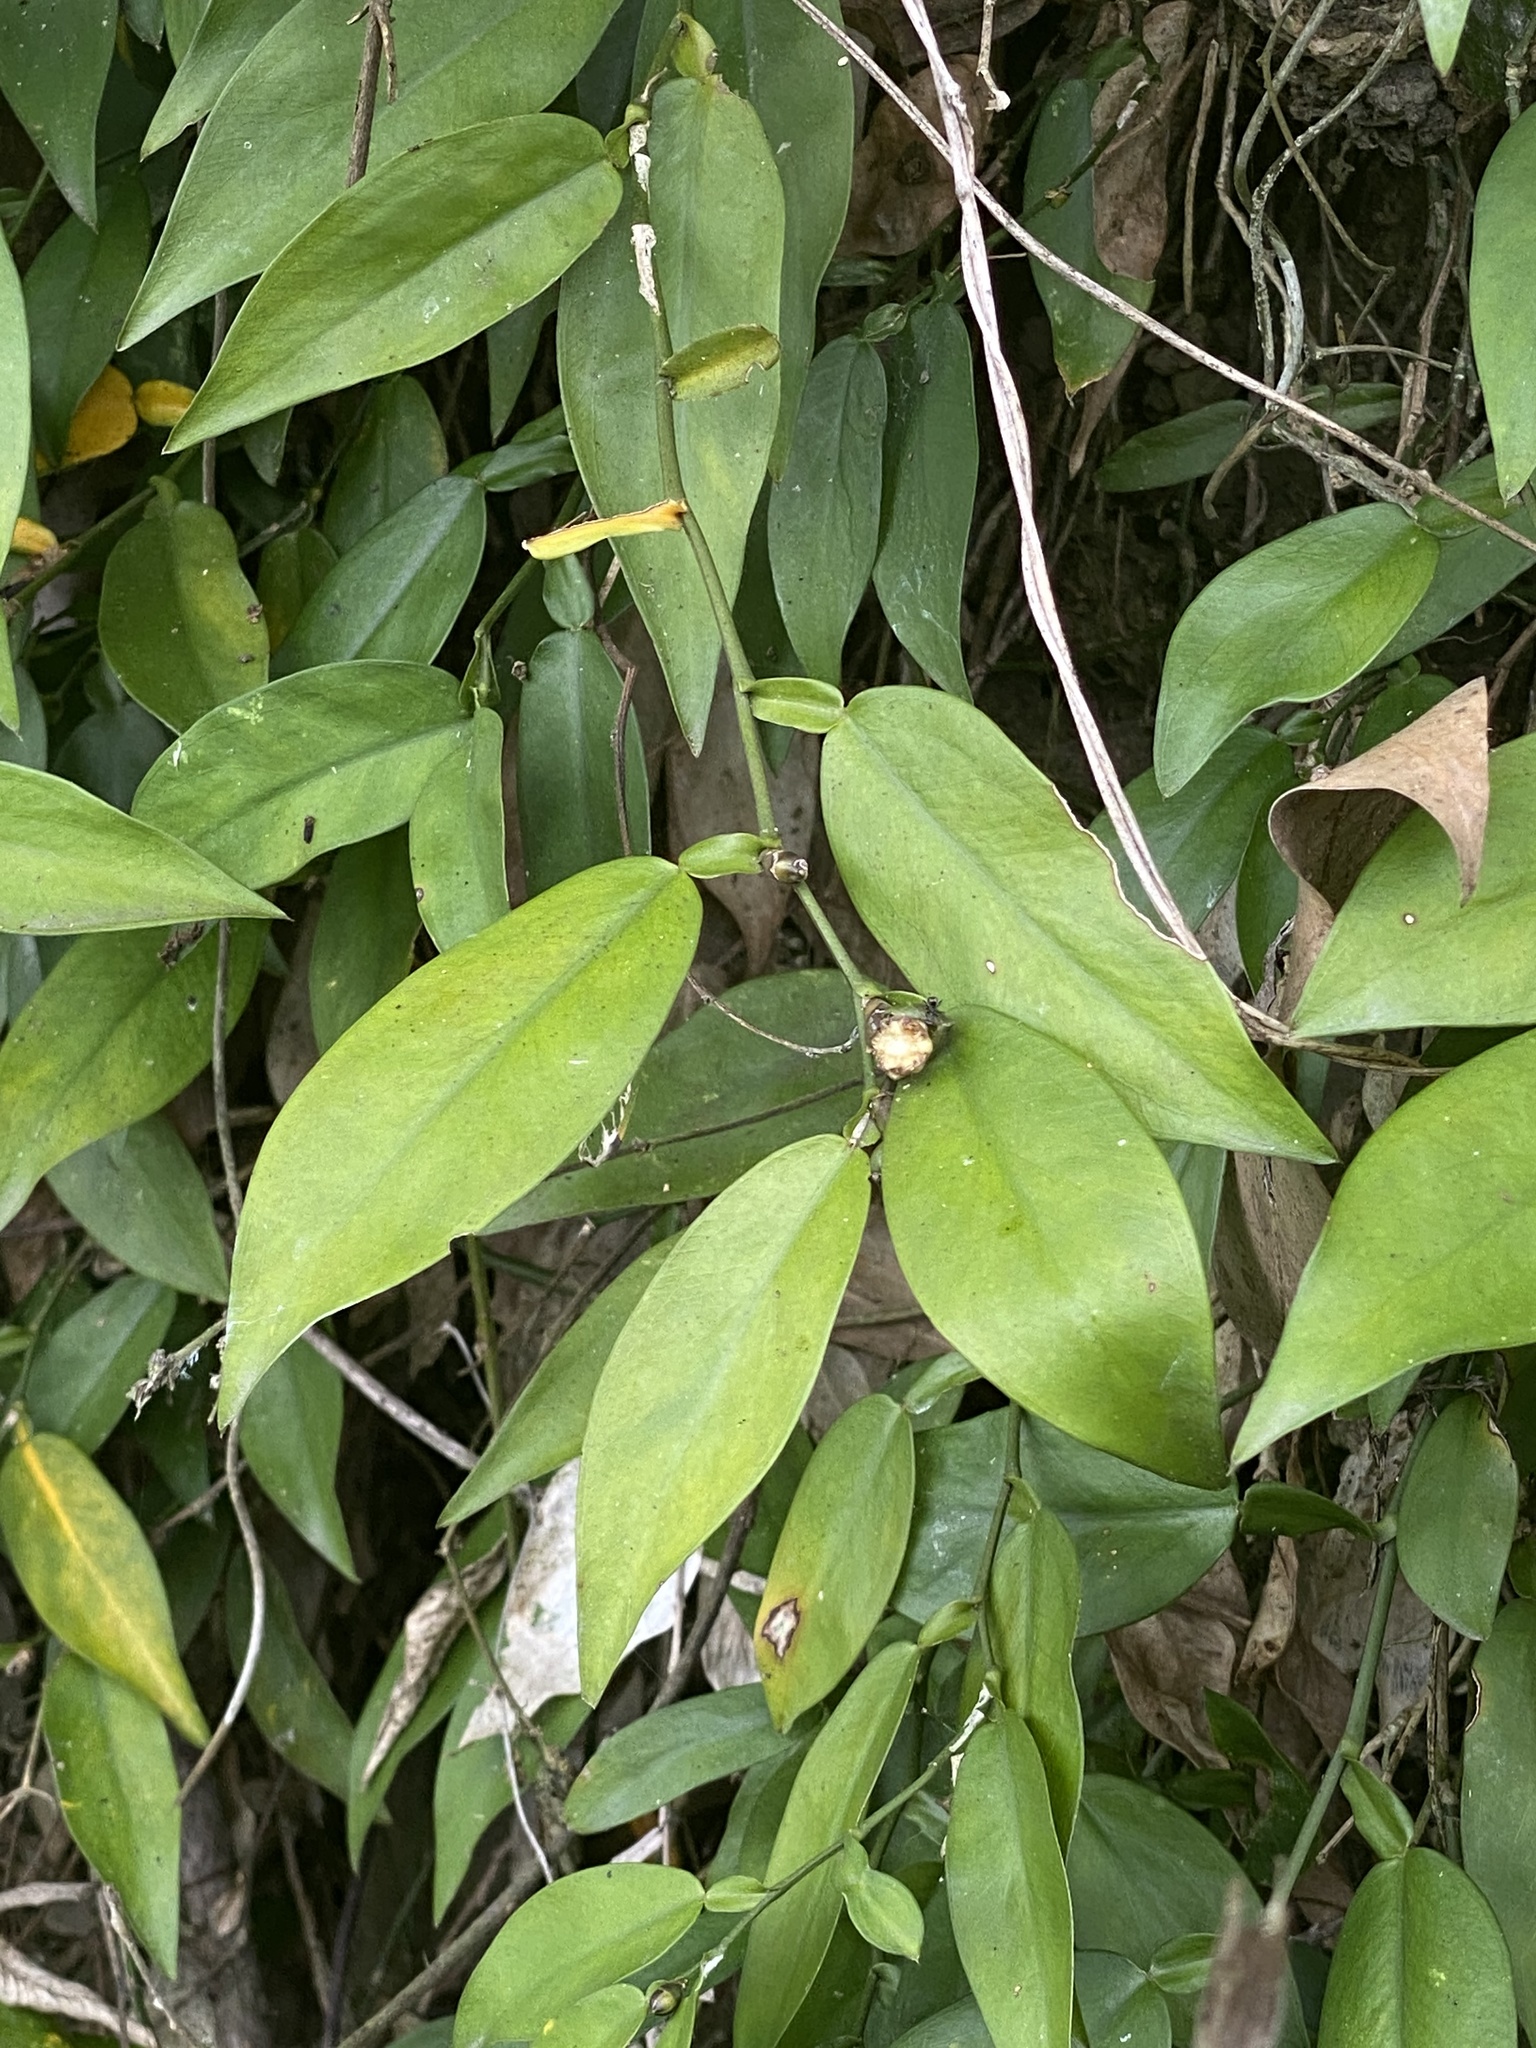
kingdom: Plantae
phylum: Tracheophyta
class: Liliopsida
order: Alismatales
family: Araceae
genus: Pothos
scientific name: Pothos chinensis
